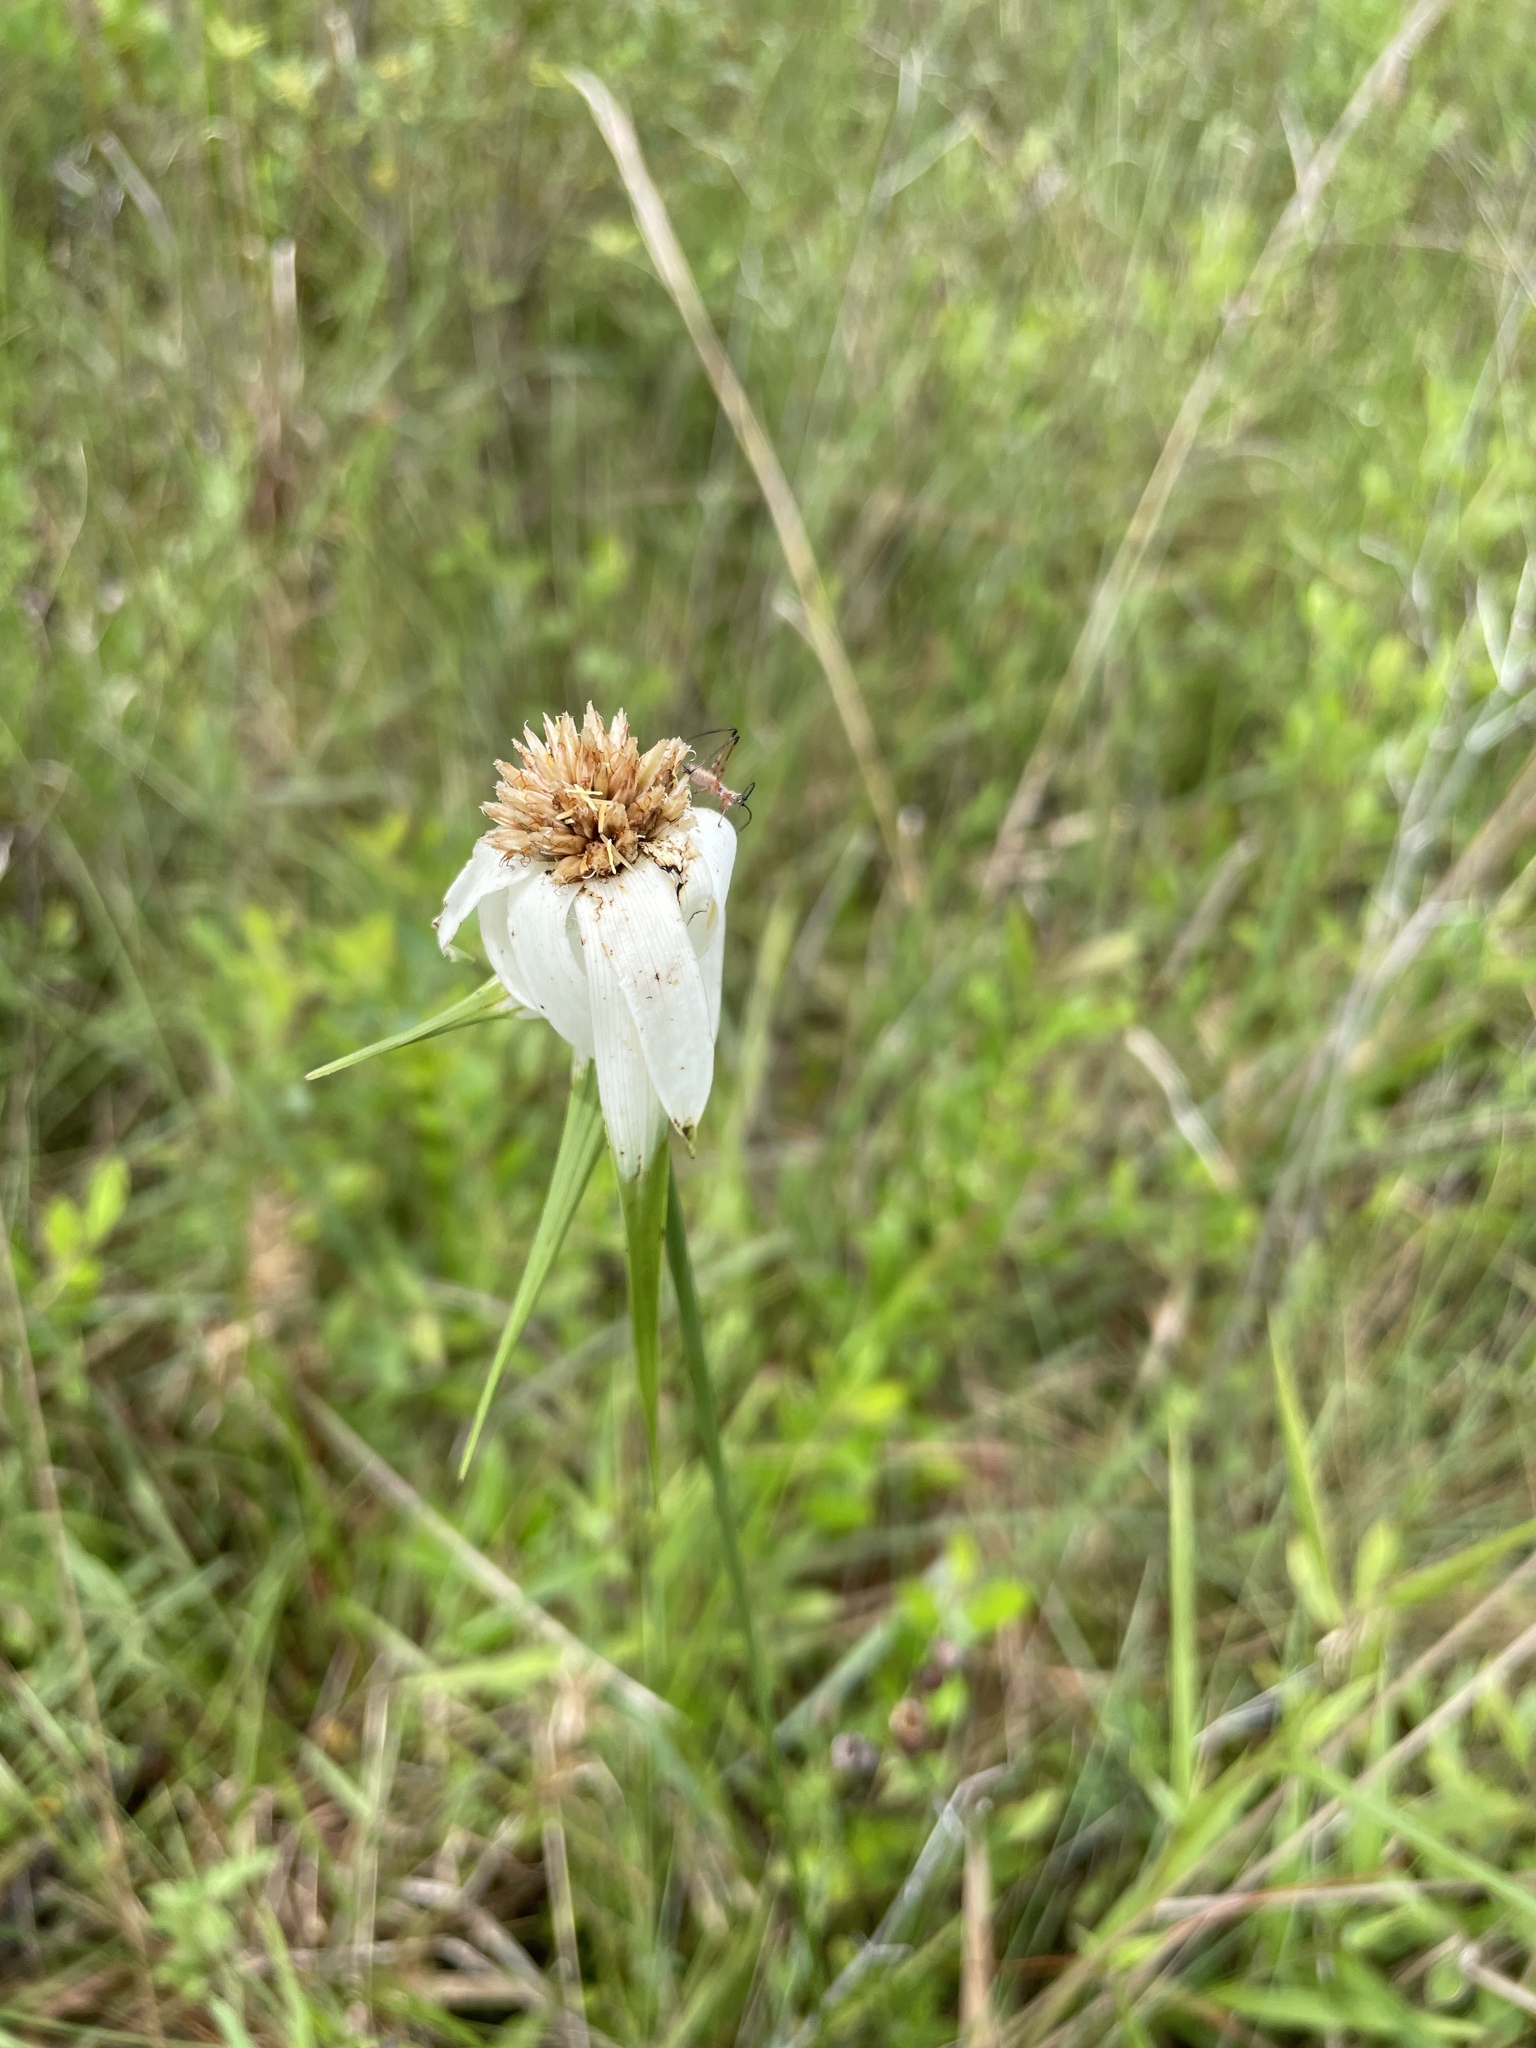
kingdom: Plantae
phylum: Tracheophyta
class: Liliopsida
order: Poales
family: Cyperaceae
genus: Rhynchospora
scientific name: Rhynchospora latifolia
